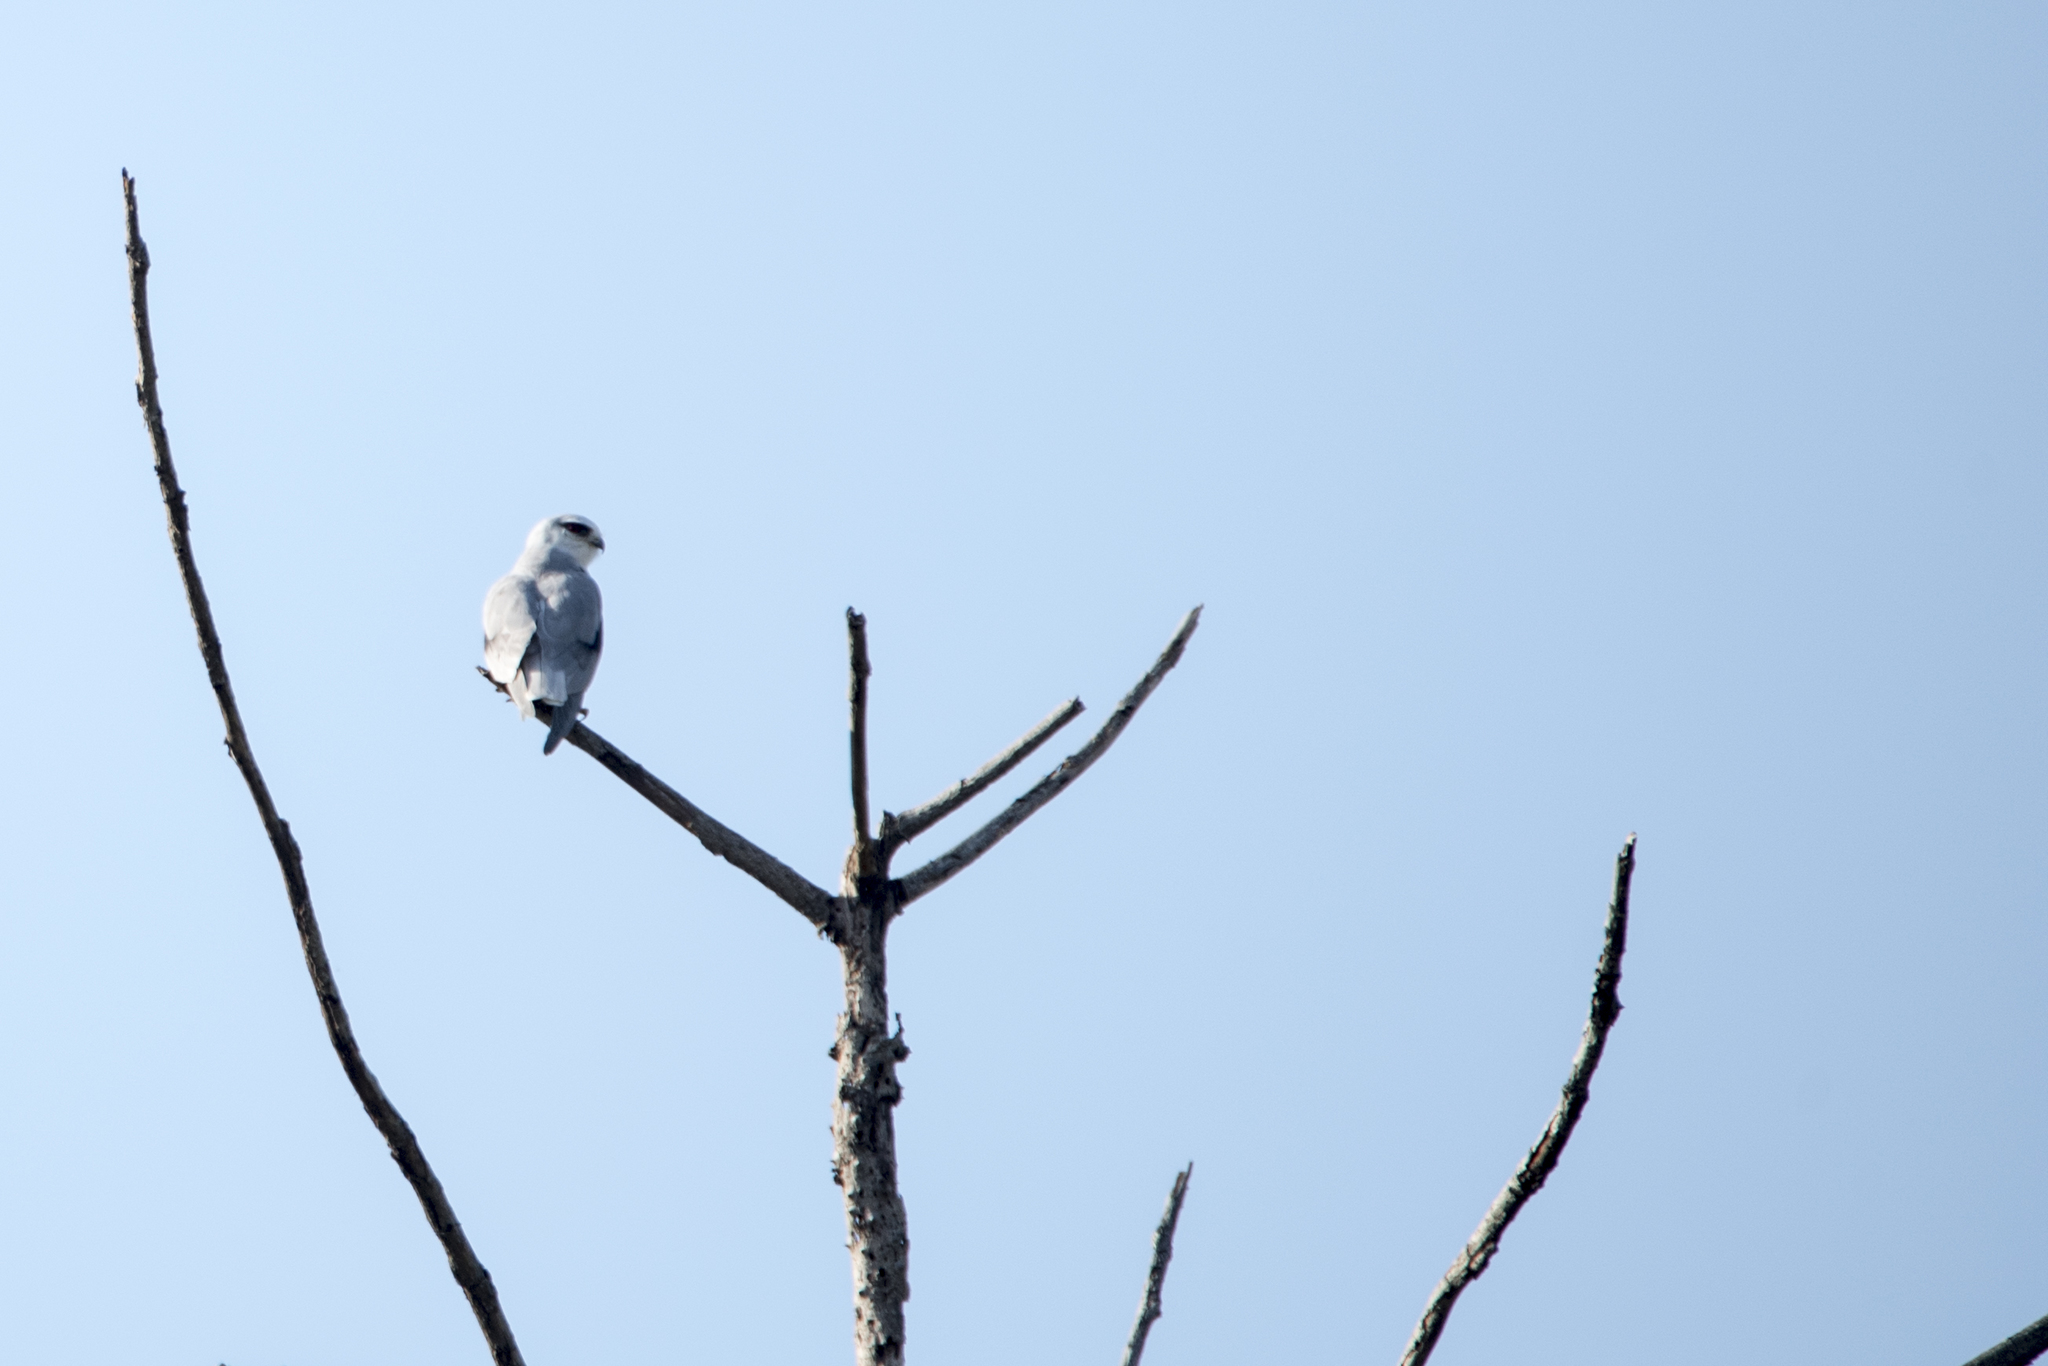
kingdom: Animalia
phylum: Chordata
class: Aves
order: Accipitriformes
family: Accipitridae
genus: Elanus
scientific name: Elanus caeruleus
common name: Black-winged kite
